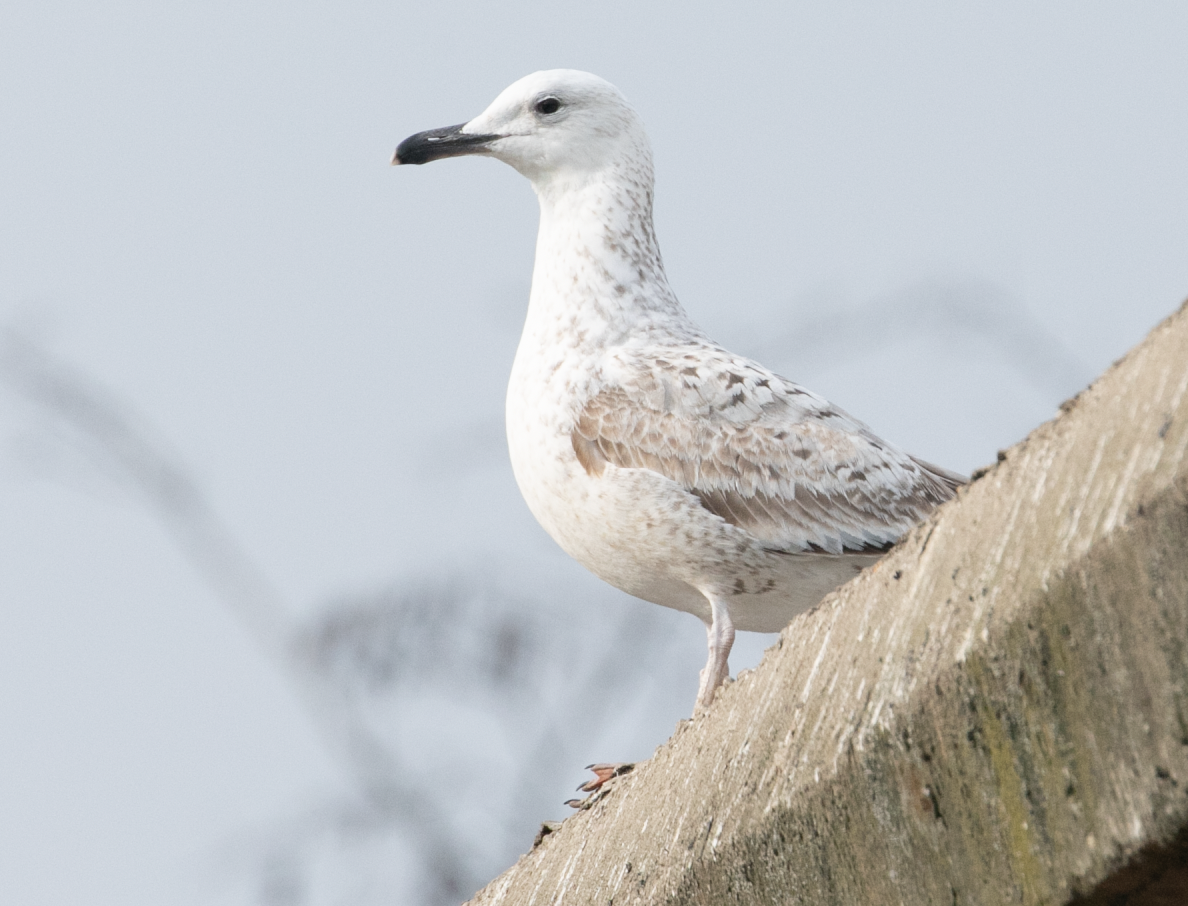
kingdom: Animalia
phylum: Chordata
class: Aves
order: Charadriiformes
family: Laridae
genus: Larus
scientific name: Larus cachinnans
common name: Caspian gull
